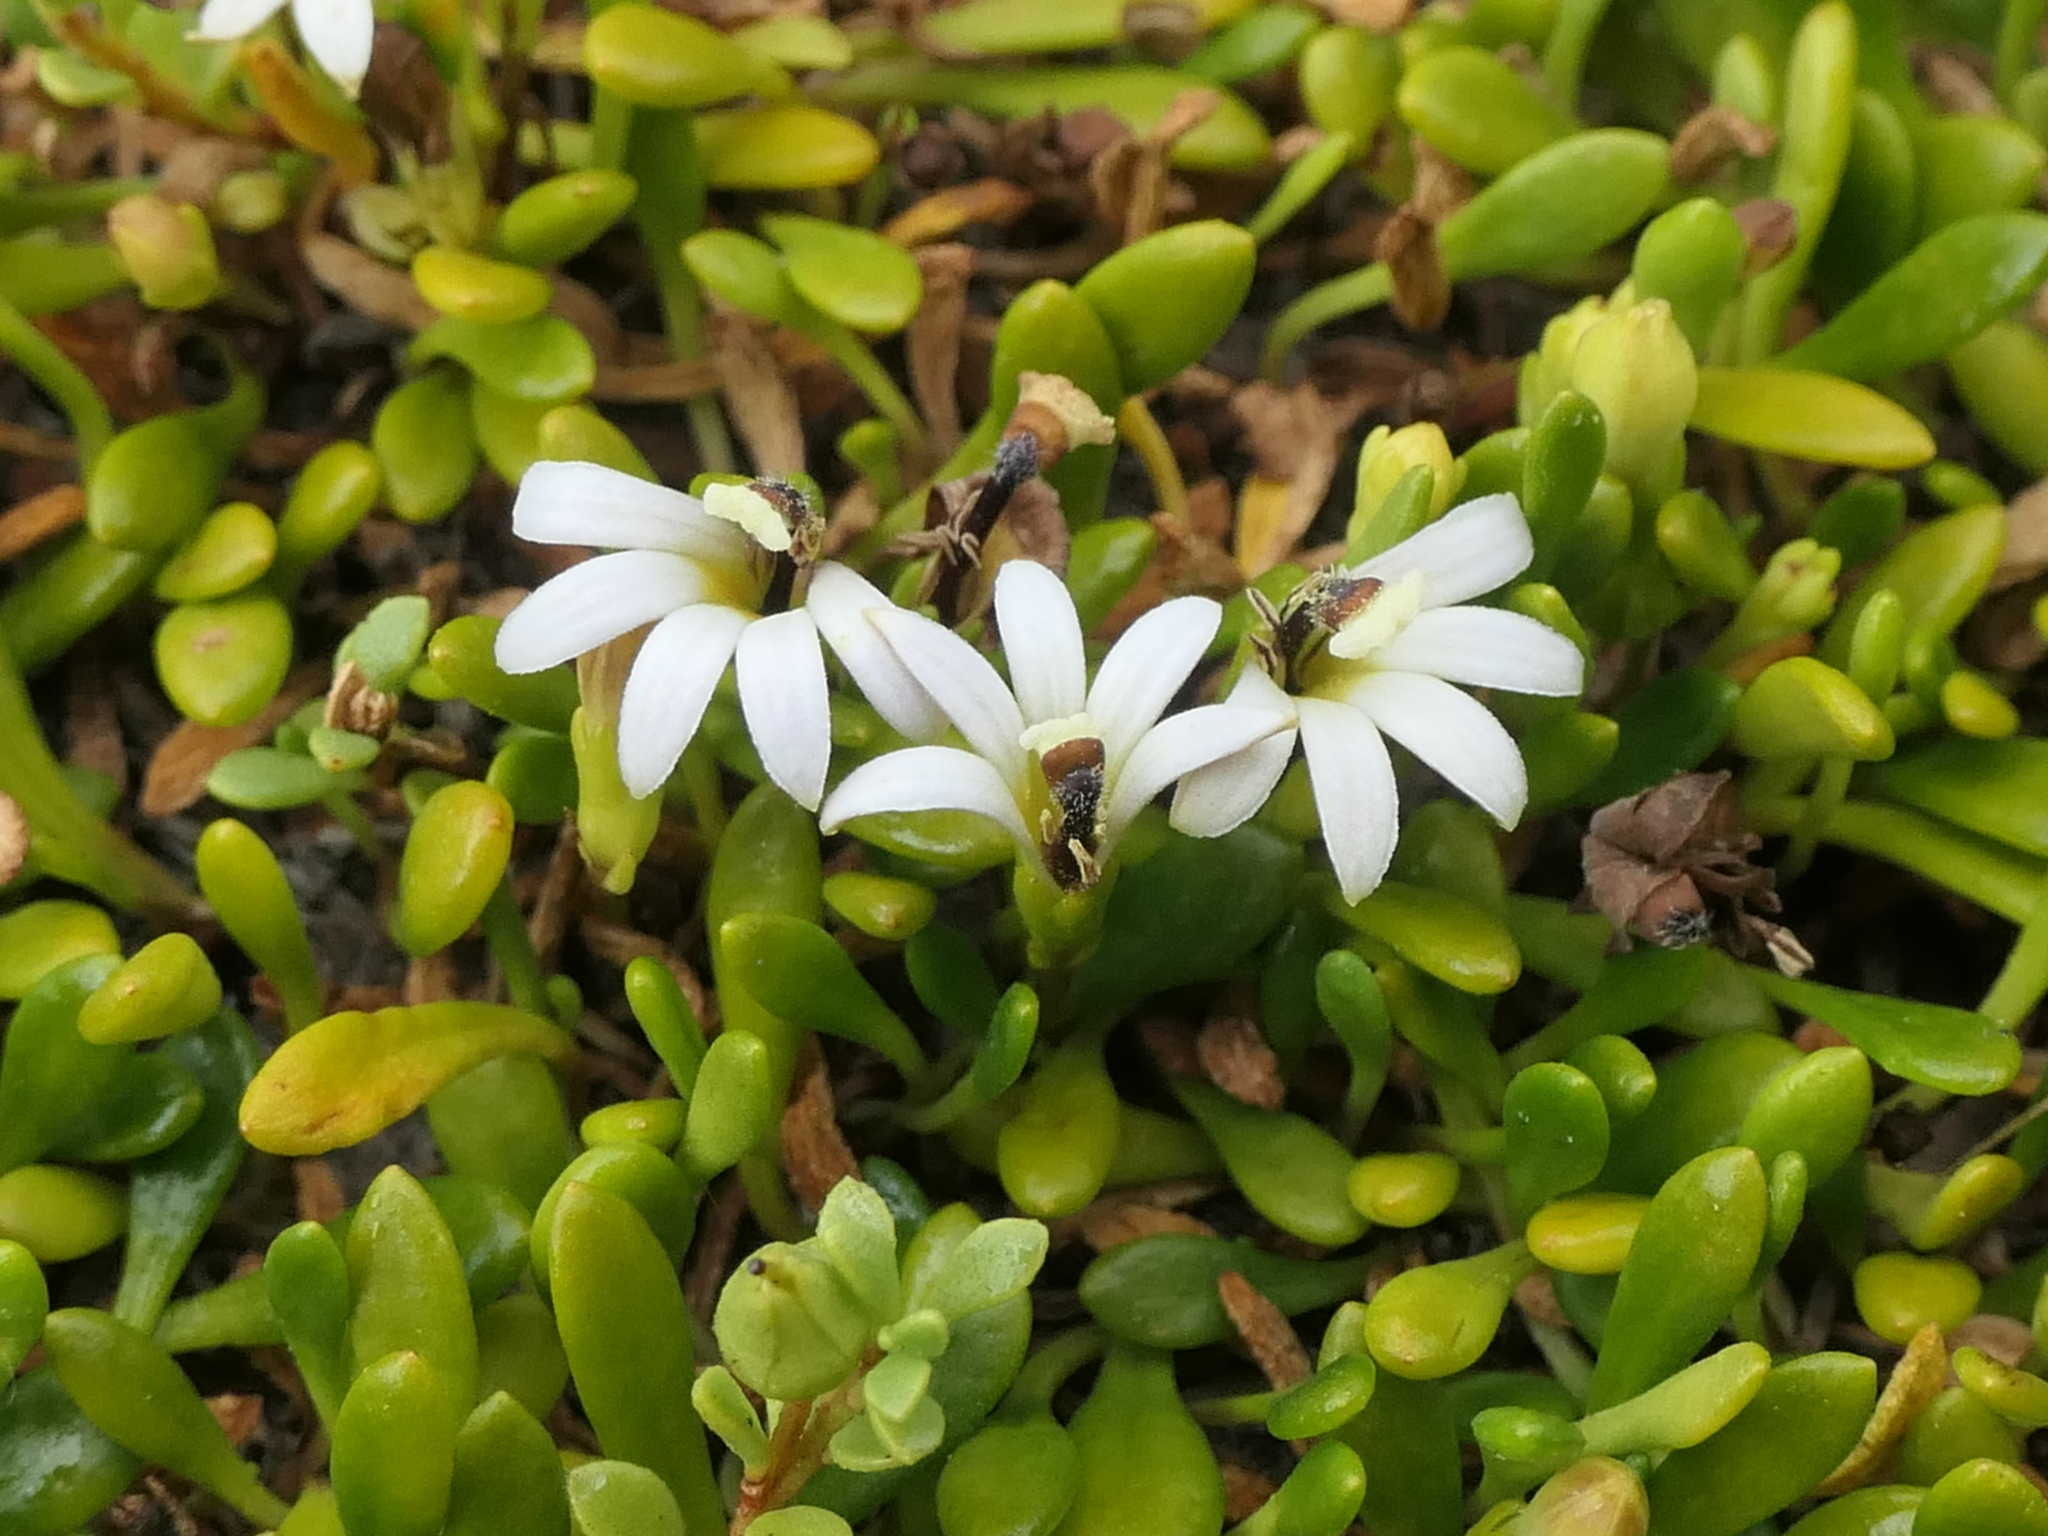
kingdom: Plantae
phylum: Tracheophyta
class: Magnoliopsida
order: Asterales
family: Goodeniaceae
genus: Goodenia
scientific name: Goodenia radicans
